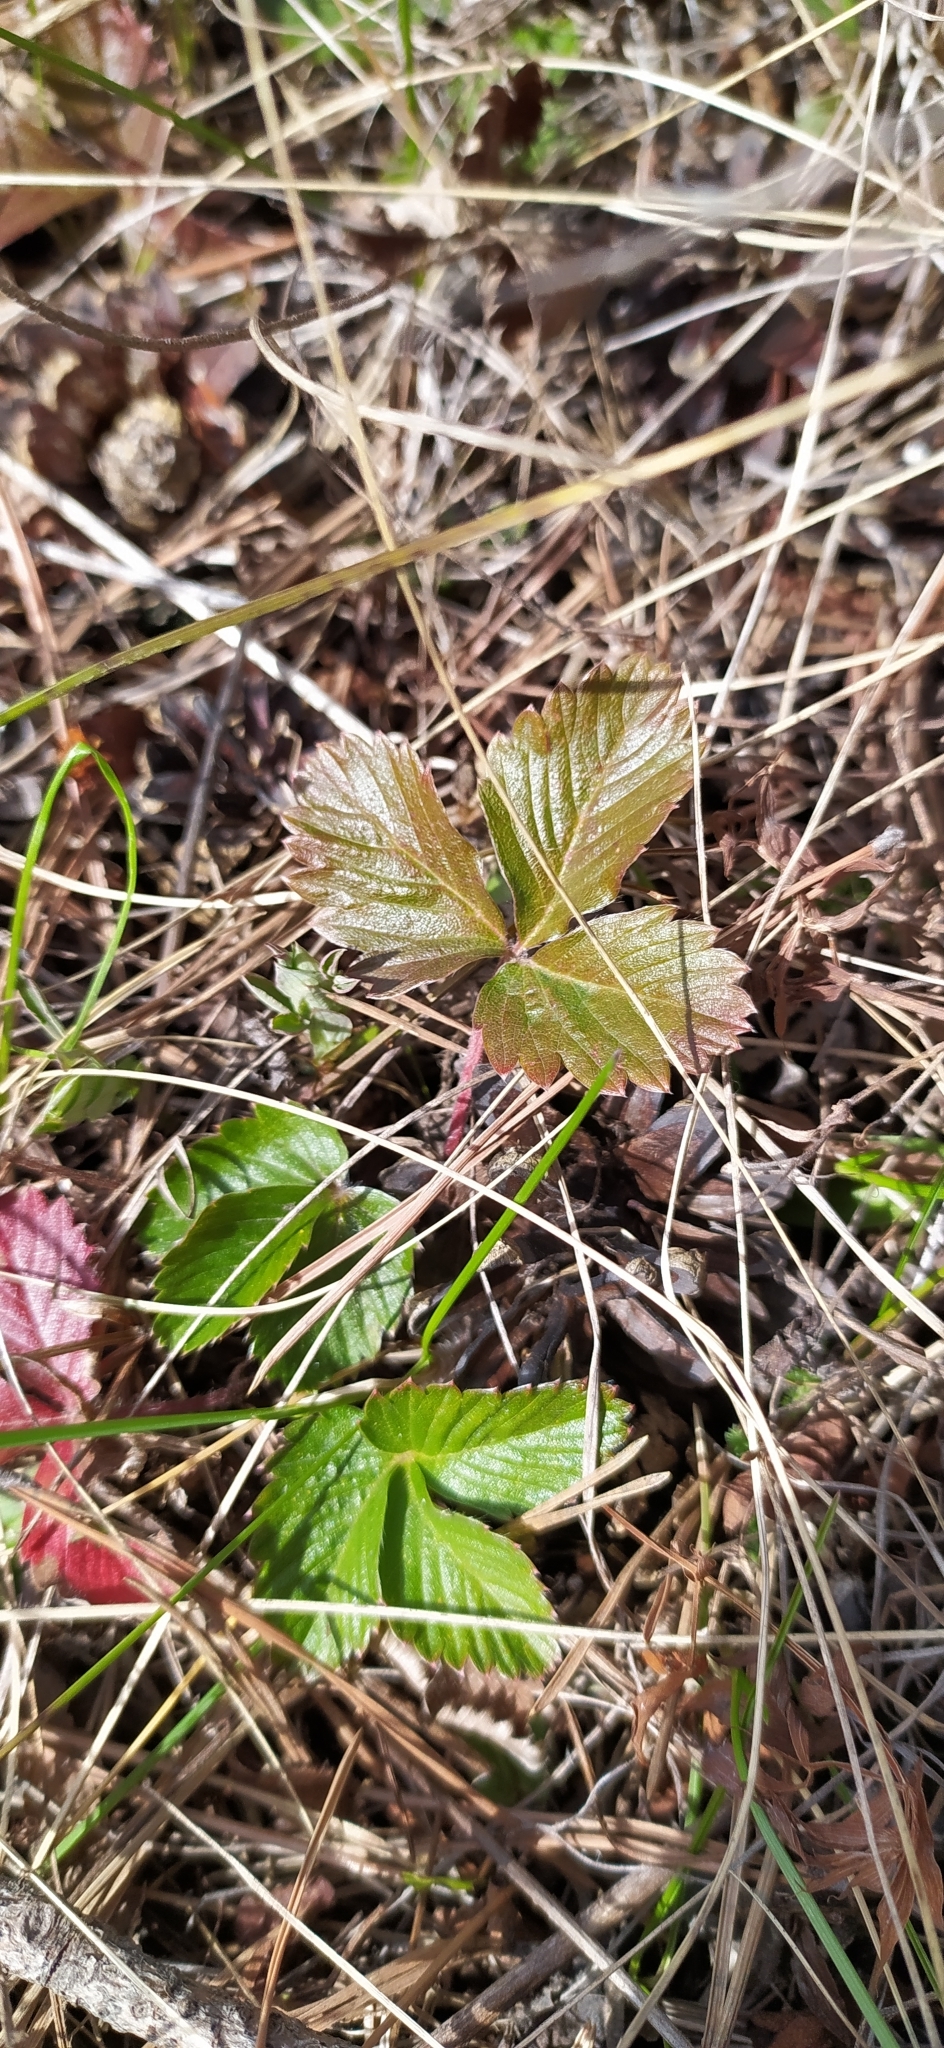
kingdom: Plantae
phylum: Tracheophyta
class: Magnoliopsida
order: Rosales
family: Rosaceae
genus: Fragaria
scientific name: Fragaria vesca
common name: Wild strawberry
